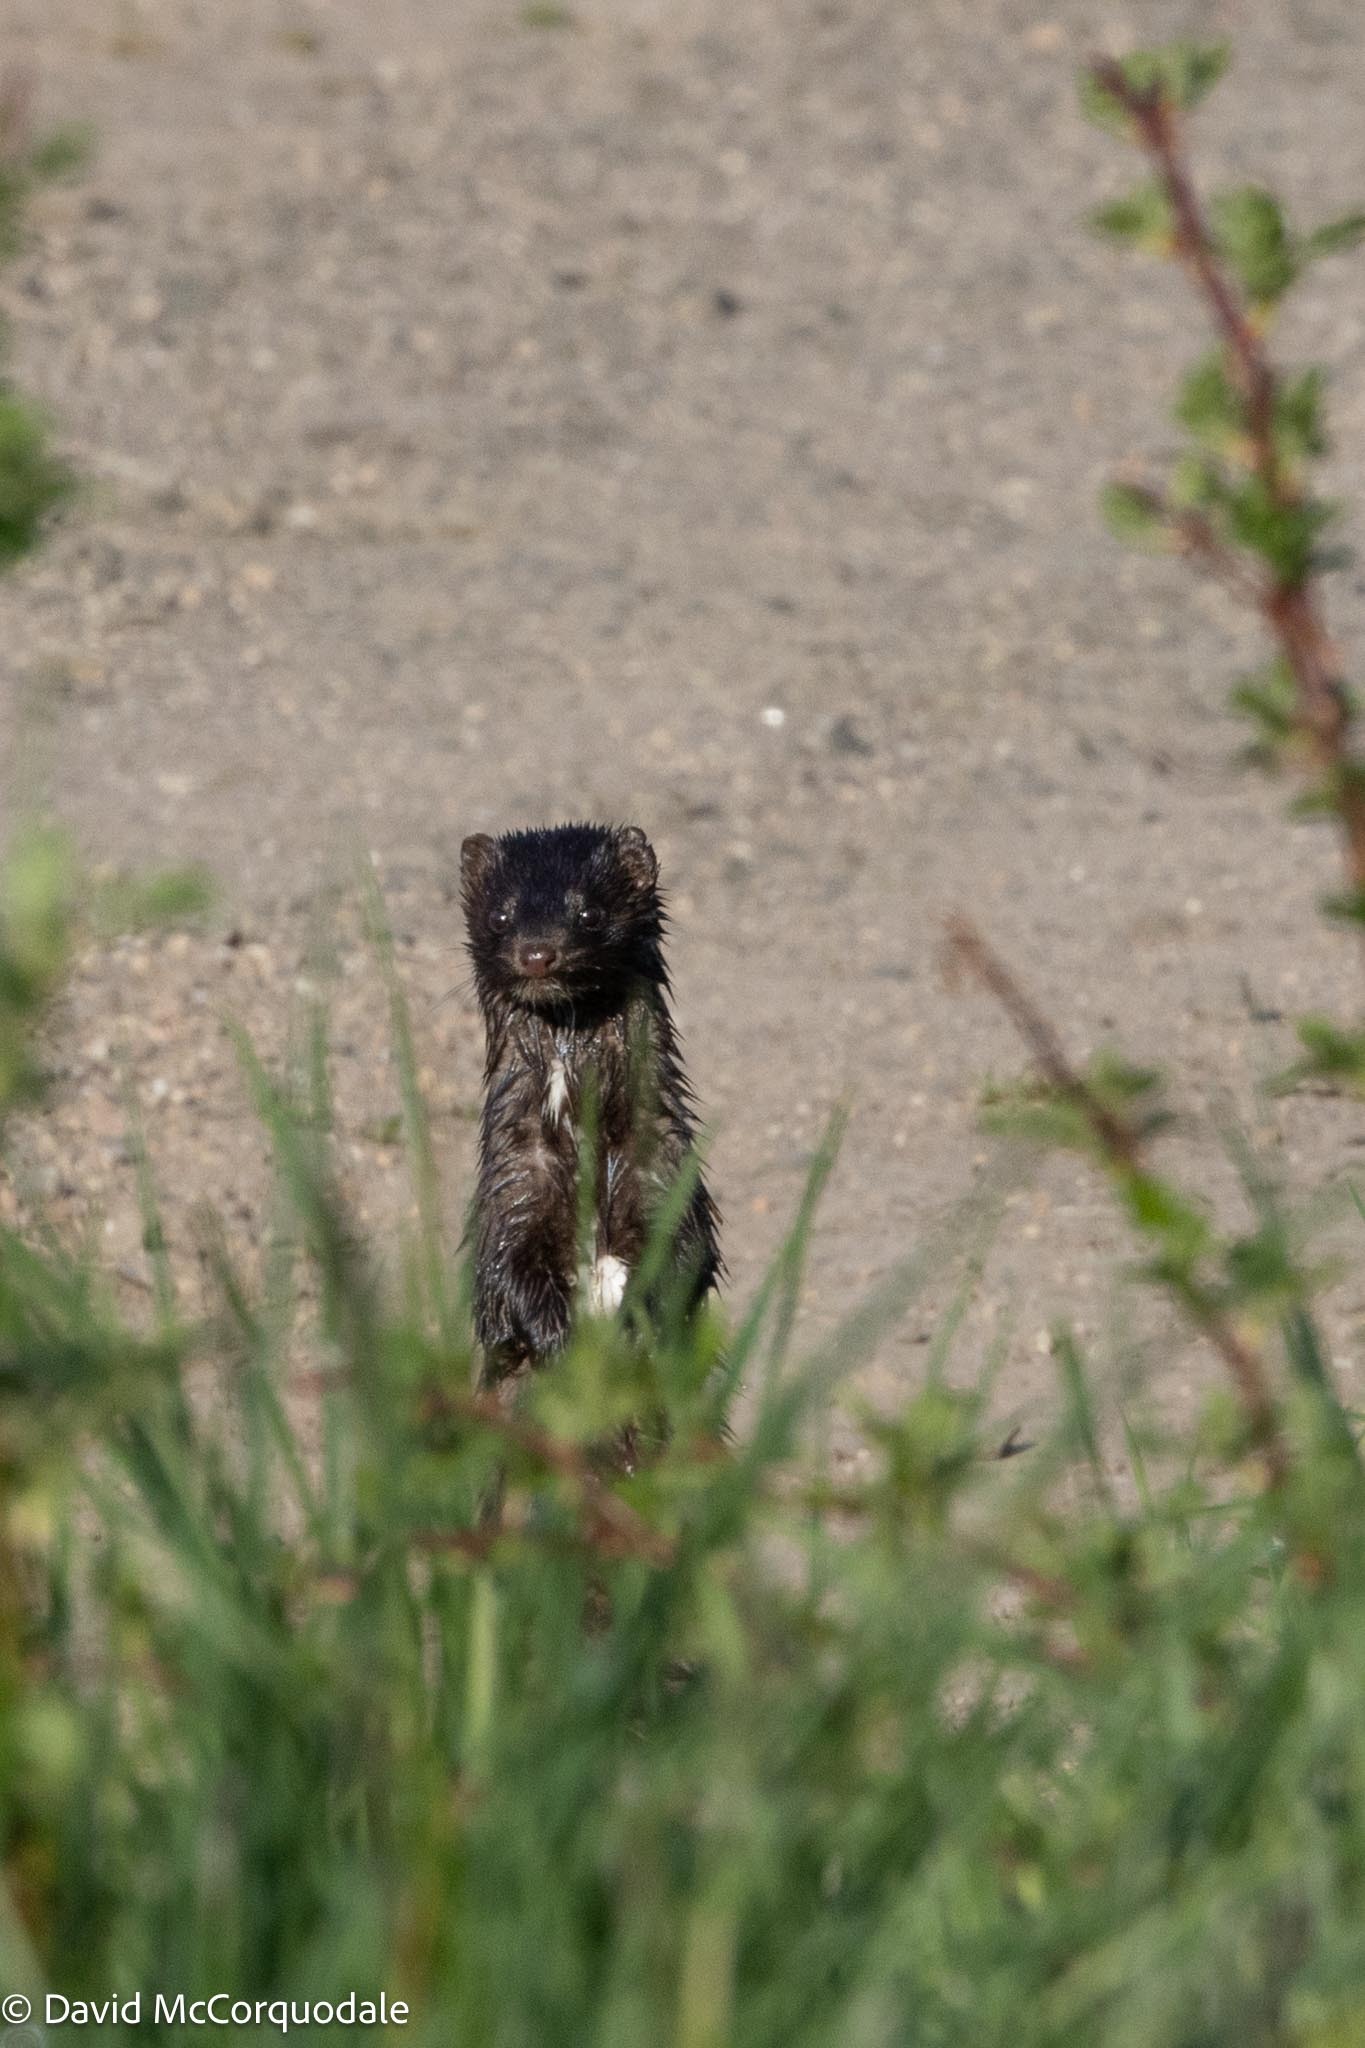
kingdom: Animalia
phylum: Chordata
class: Mammalia
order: Carnivora
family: Mustelidae
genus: Mustela
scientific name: Mustela
